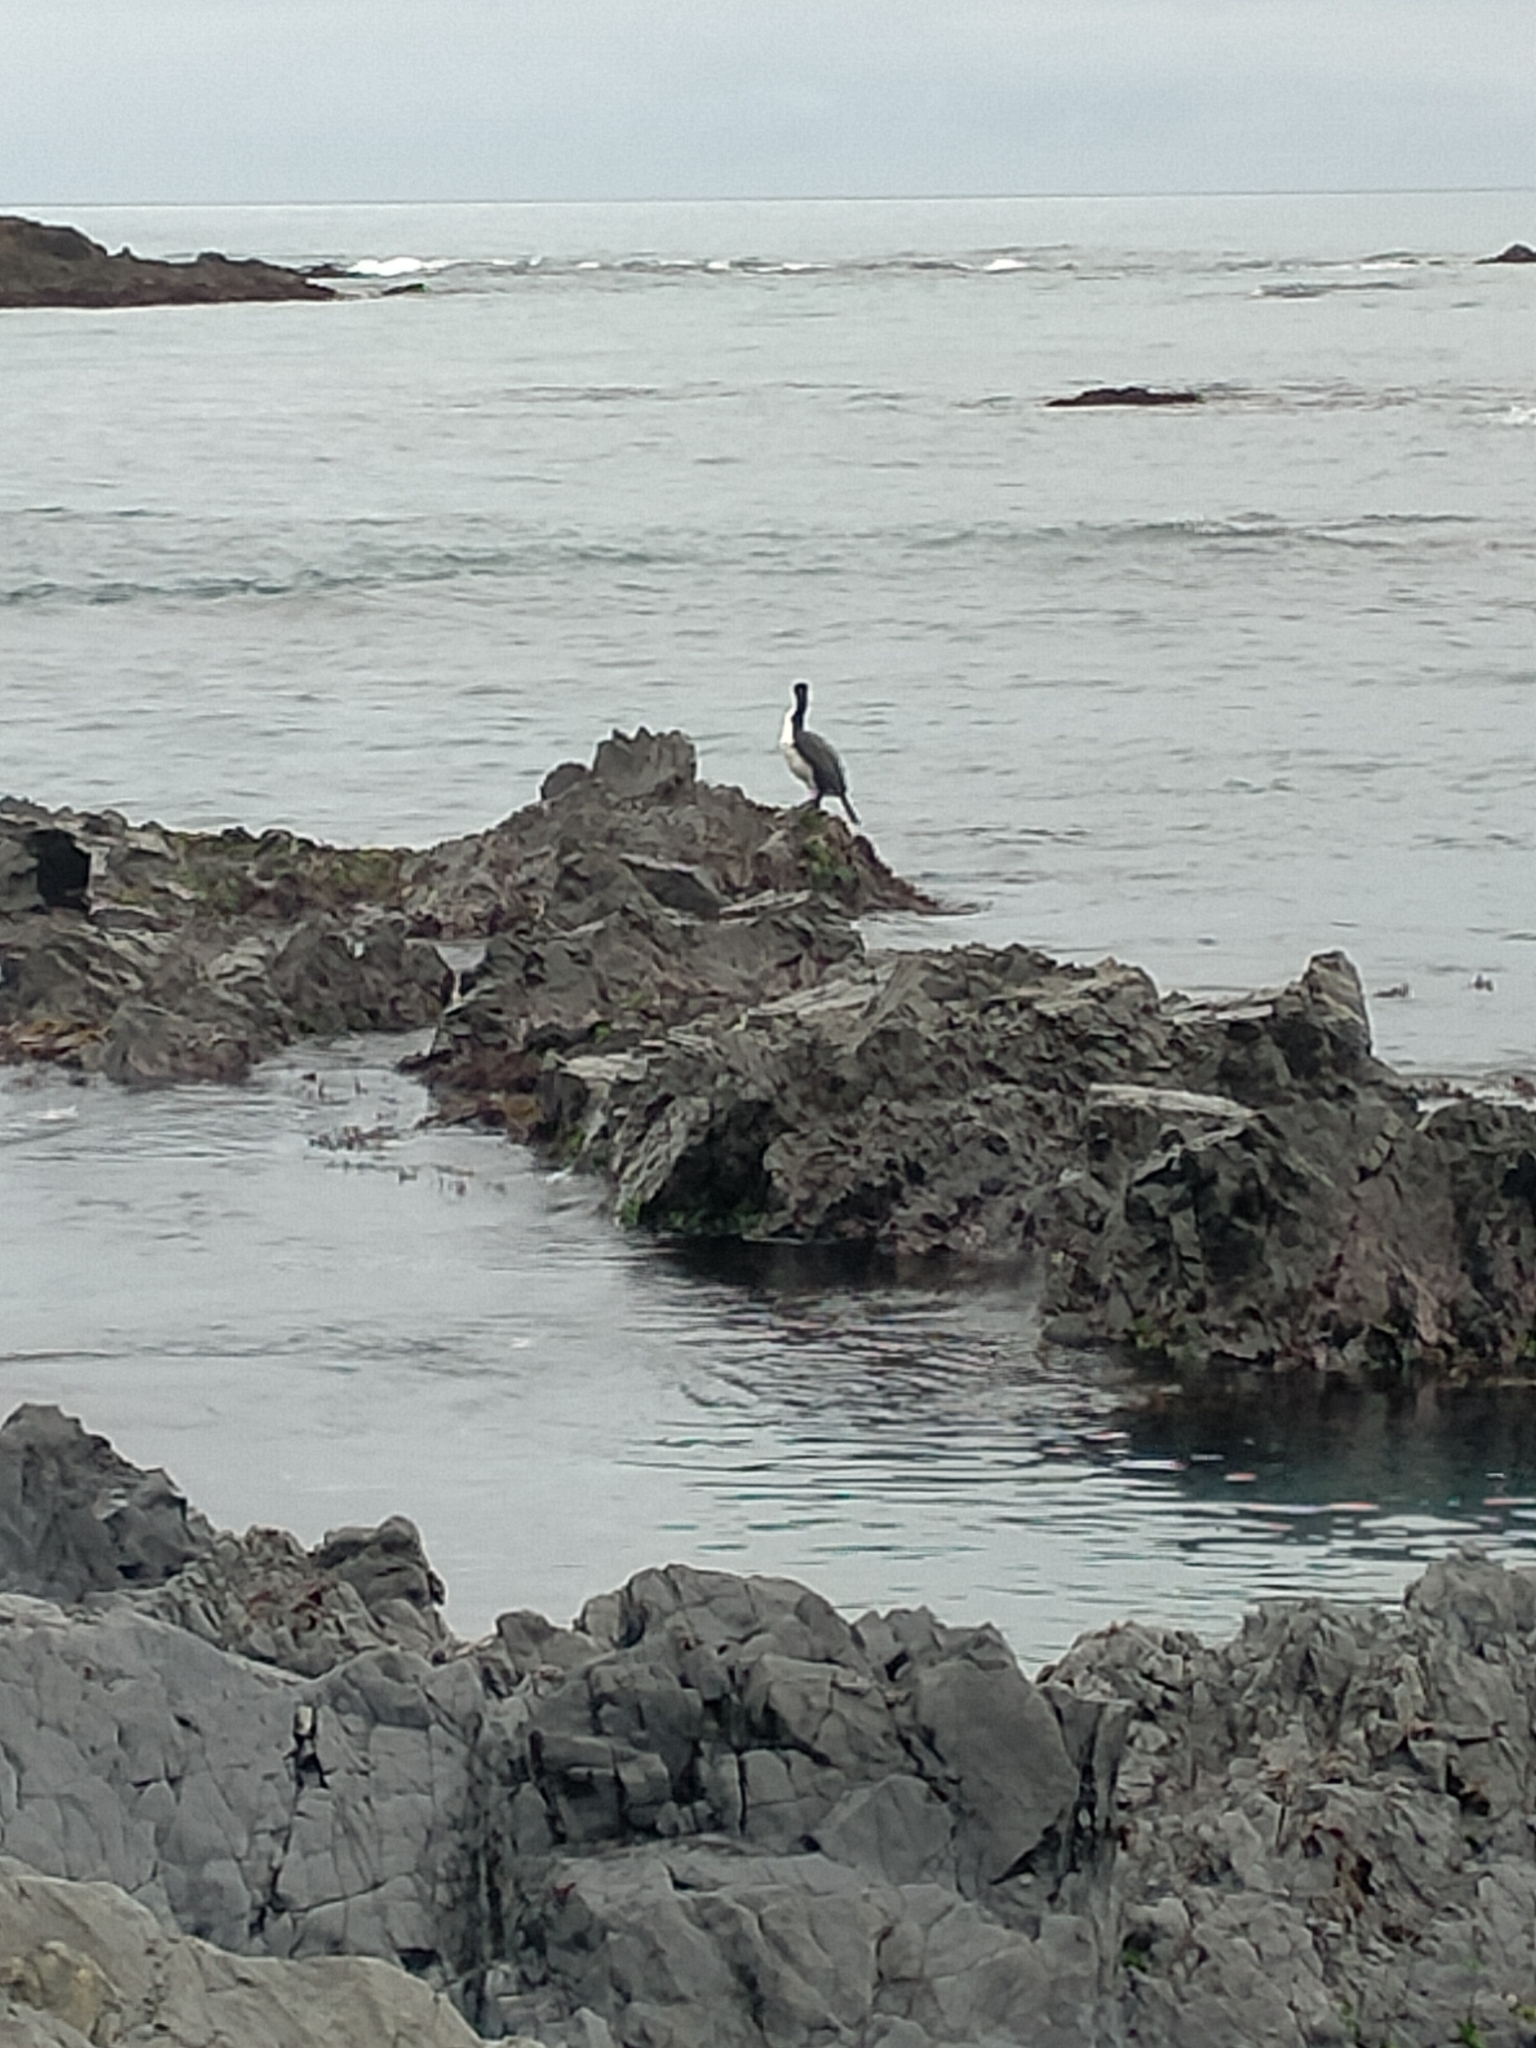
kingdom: Animalia
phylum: Chordata
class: Aves
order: Suliformes
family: Phalacrocoracidae
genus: Phalacrocorax
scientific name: Phalacrocorax varius
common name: Pied cormorant
